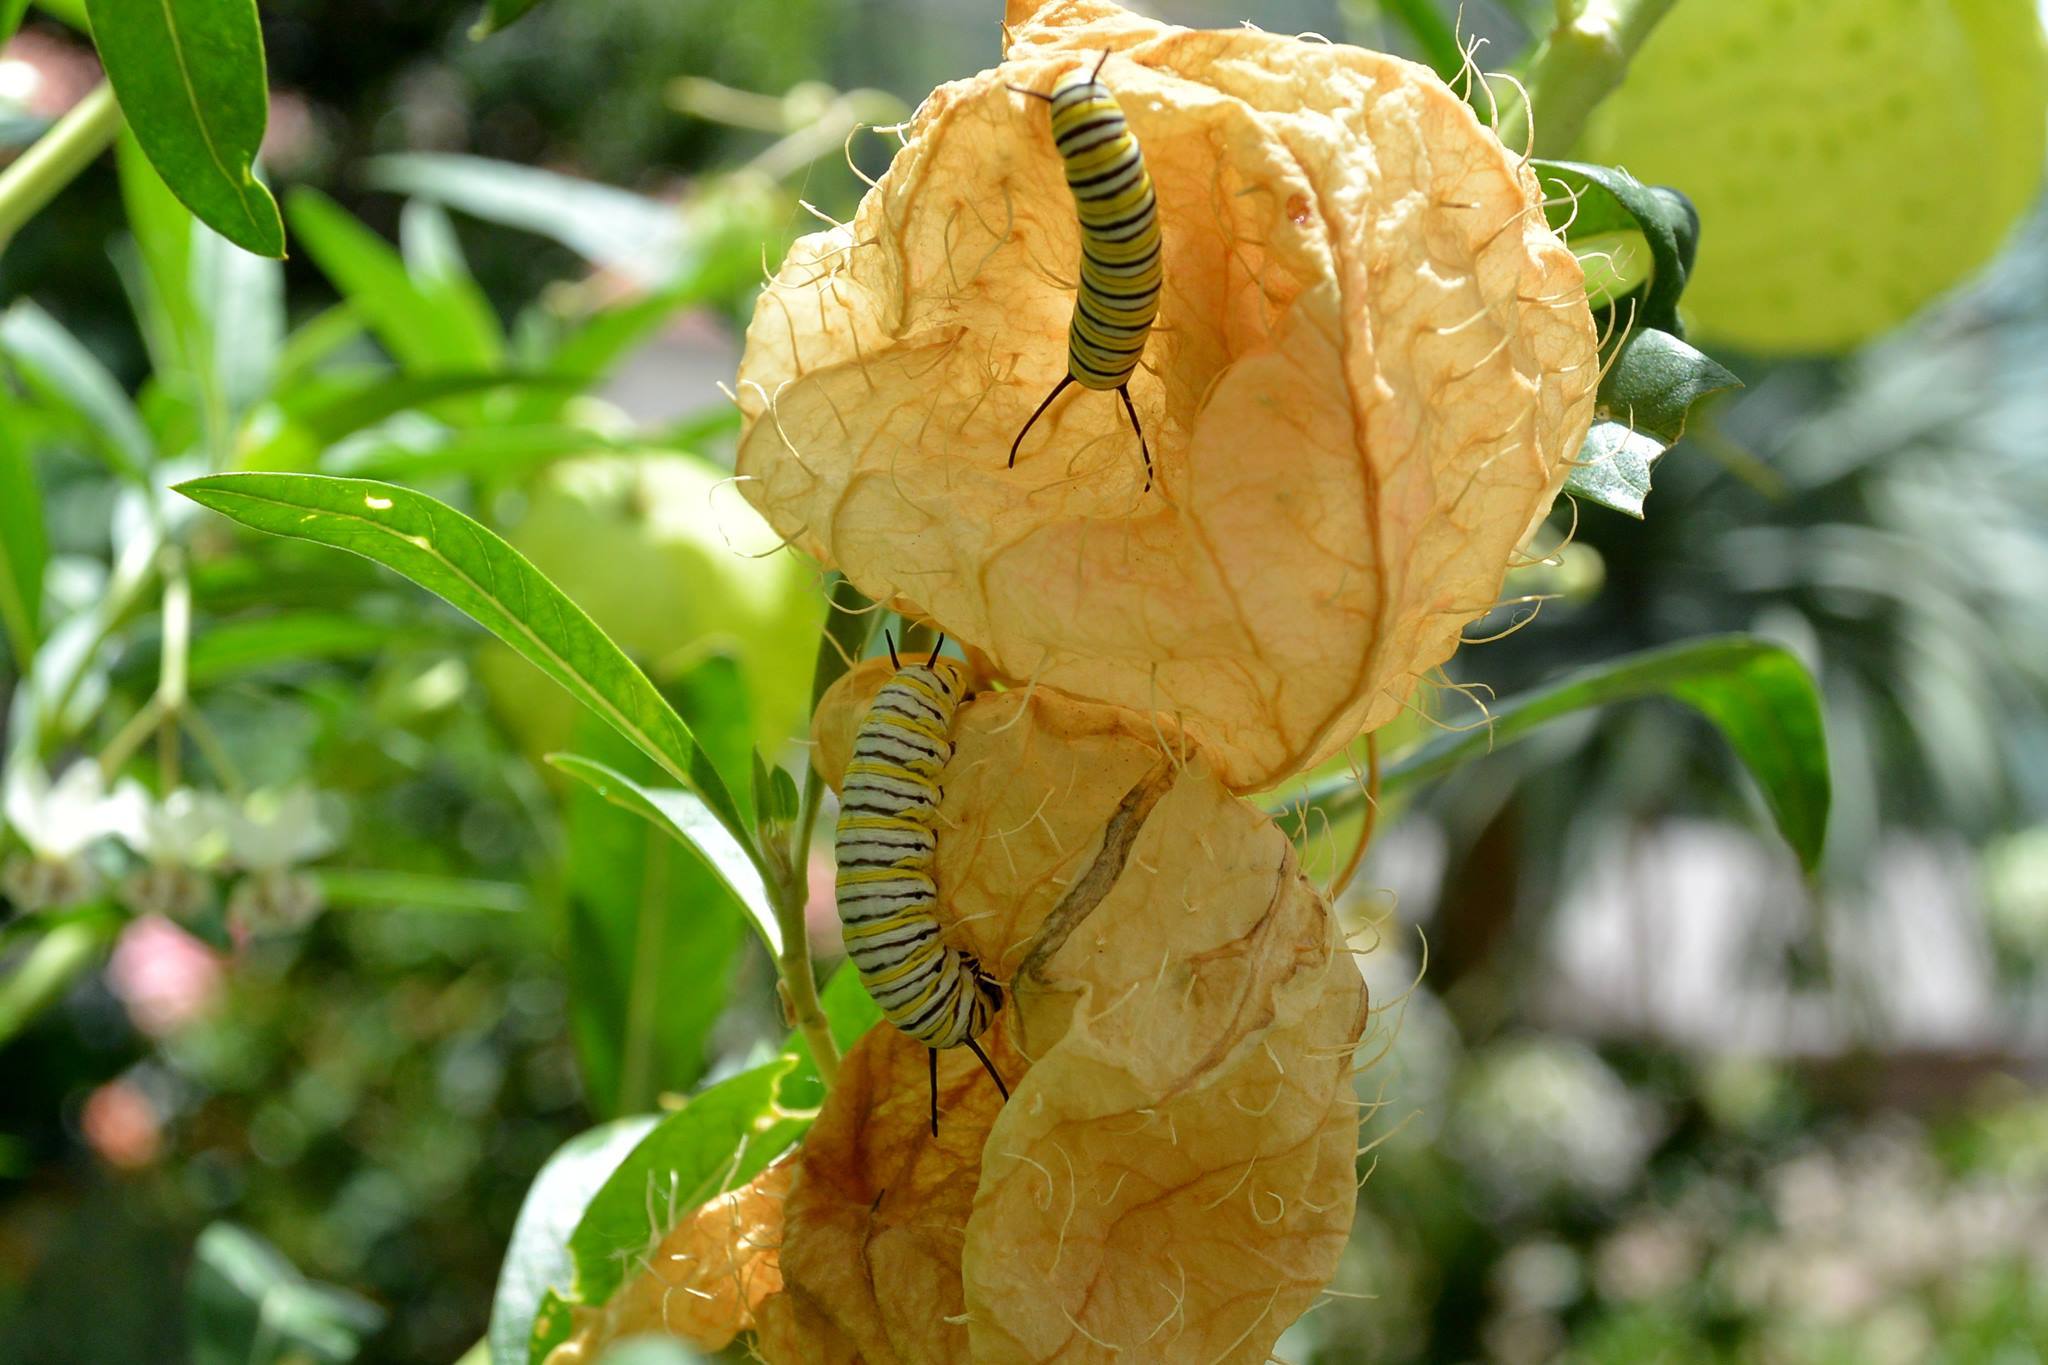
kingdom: Animalia
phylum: Arthropoda
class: Insecta
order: Lepidoptera
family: Nymphalidae
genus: Danaus
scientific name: Danaus plexippus
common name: Monarch
